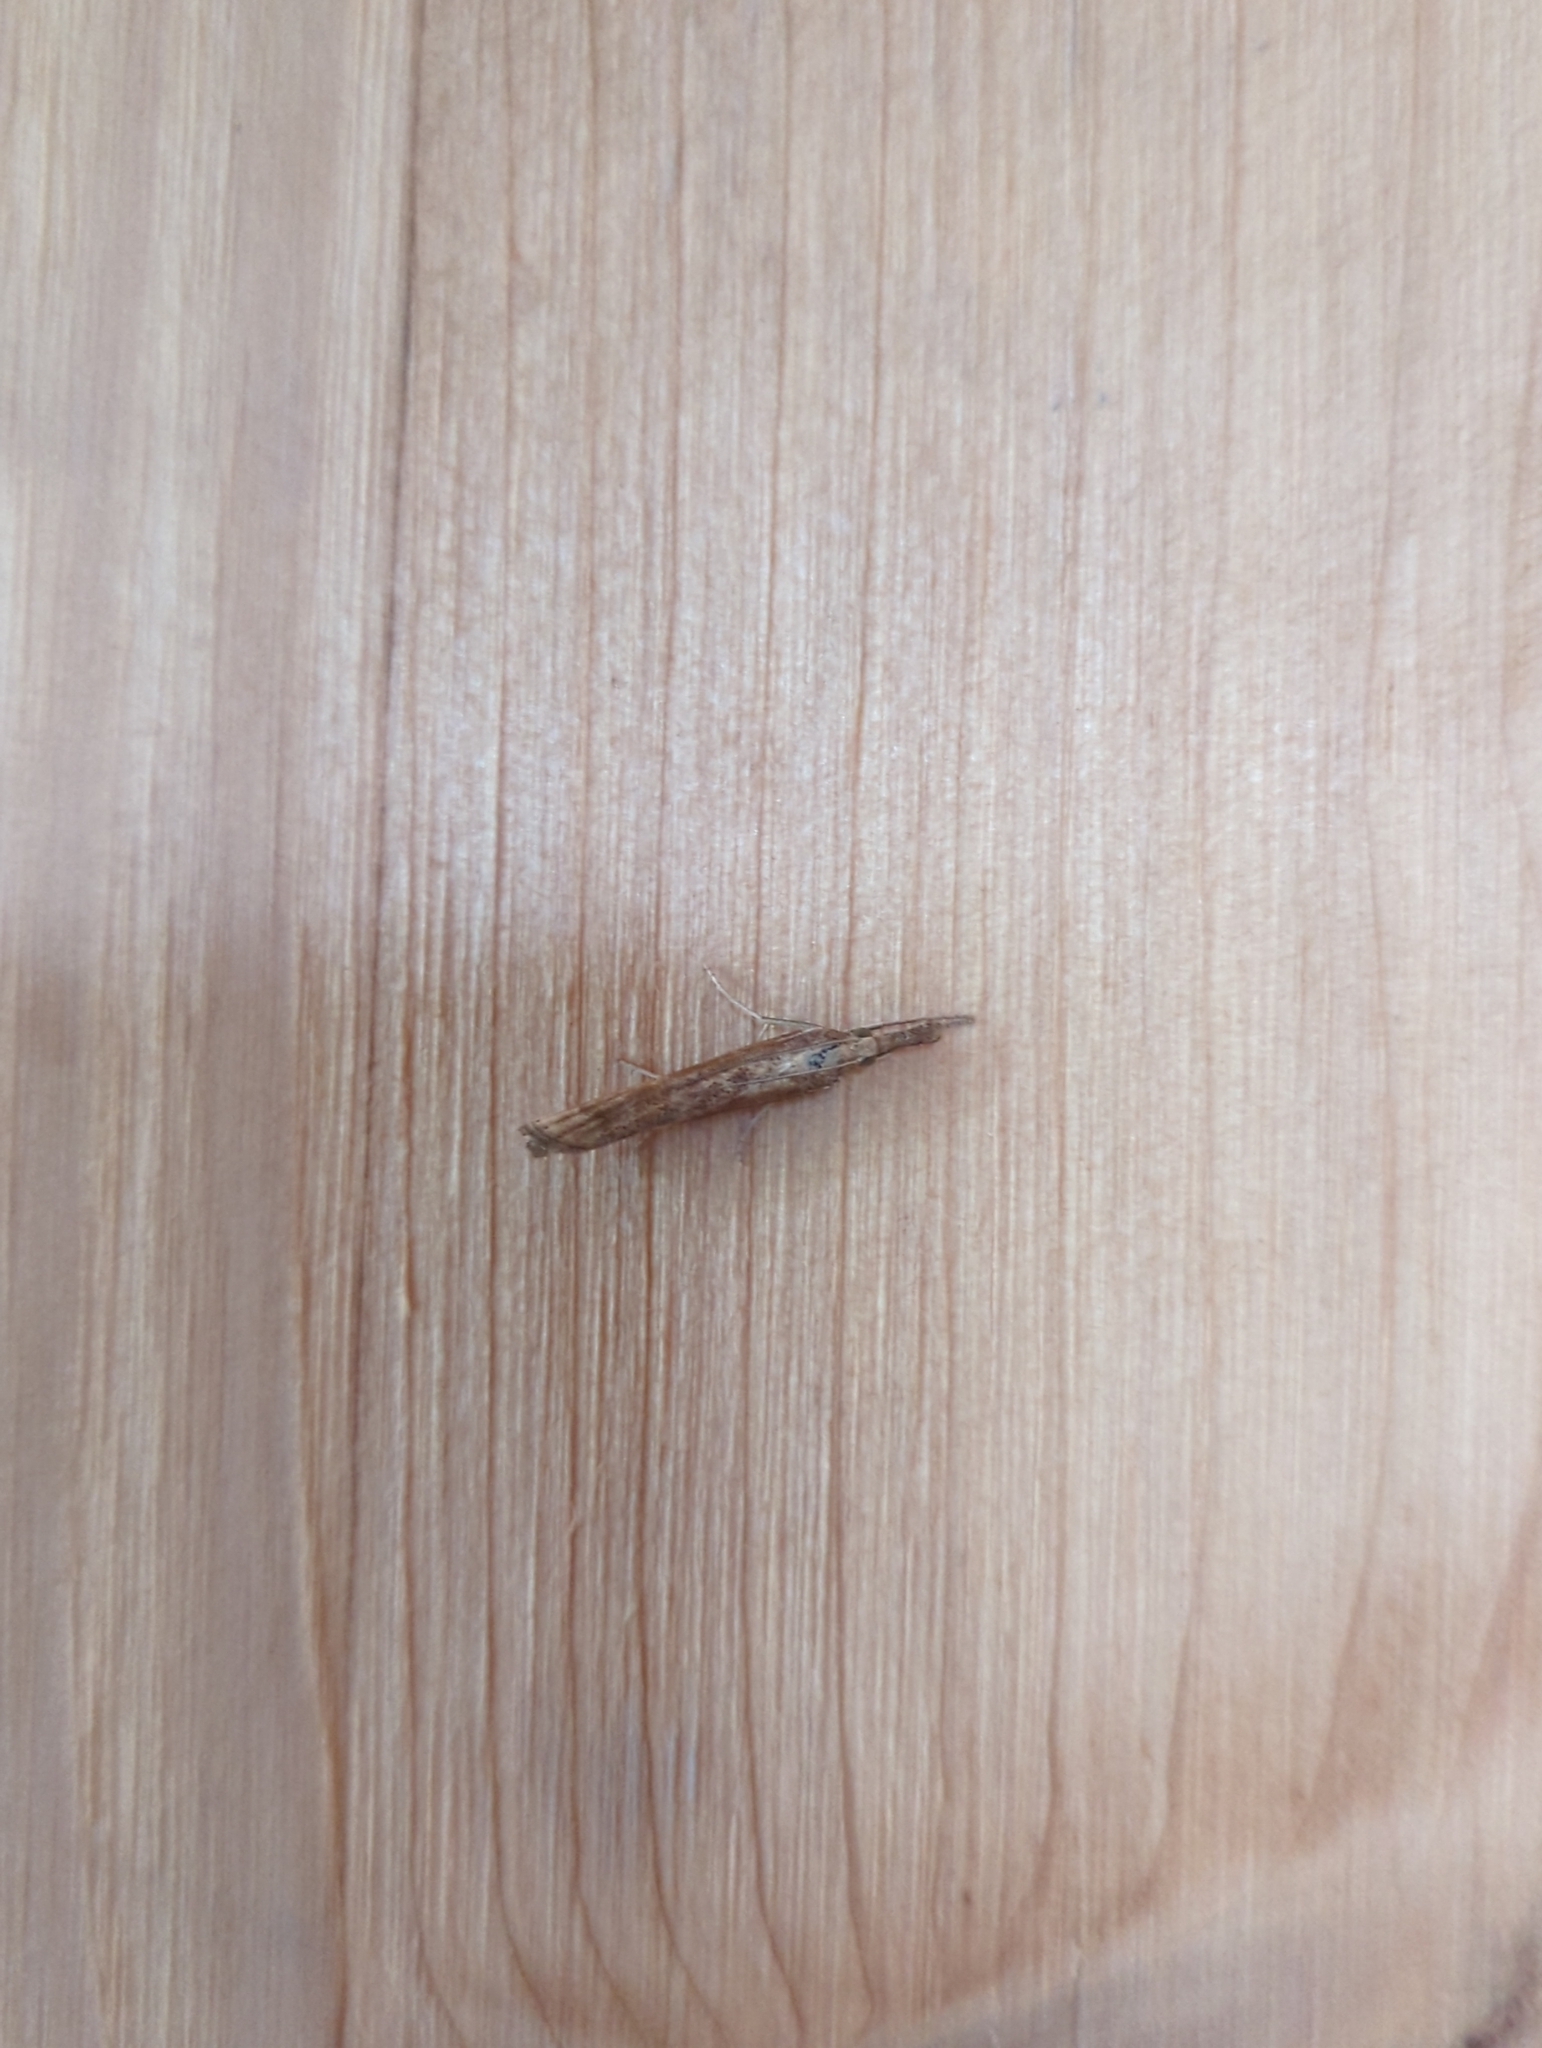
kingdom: Animalia
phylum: Arthropoda
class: Insecta
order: Lepidoptera
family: Crambidae
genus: Agriphila
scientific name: Agriphila tristellus
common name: Common grass-veneer
